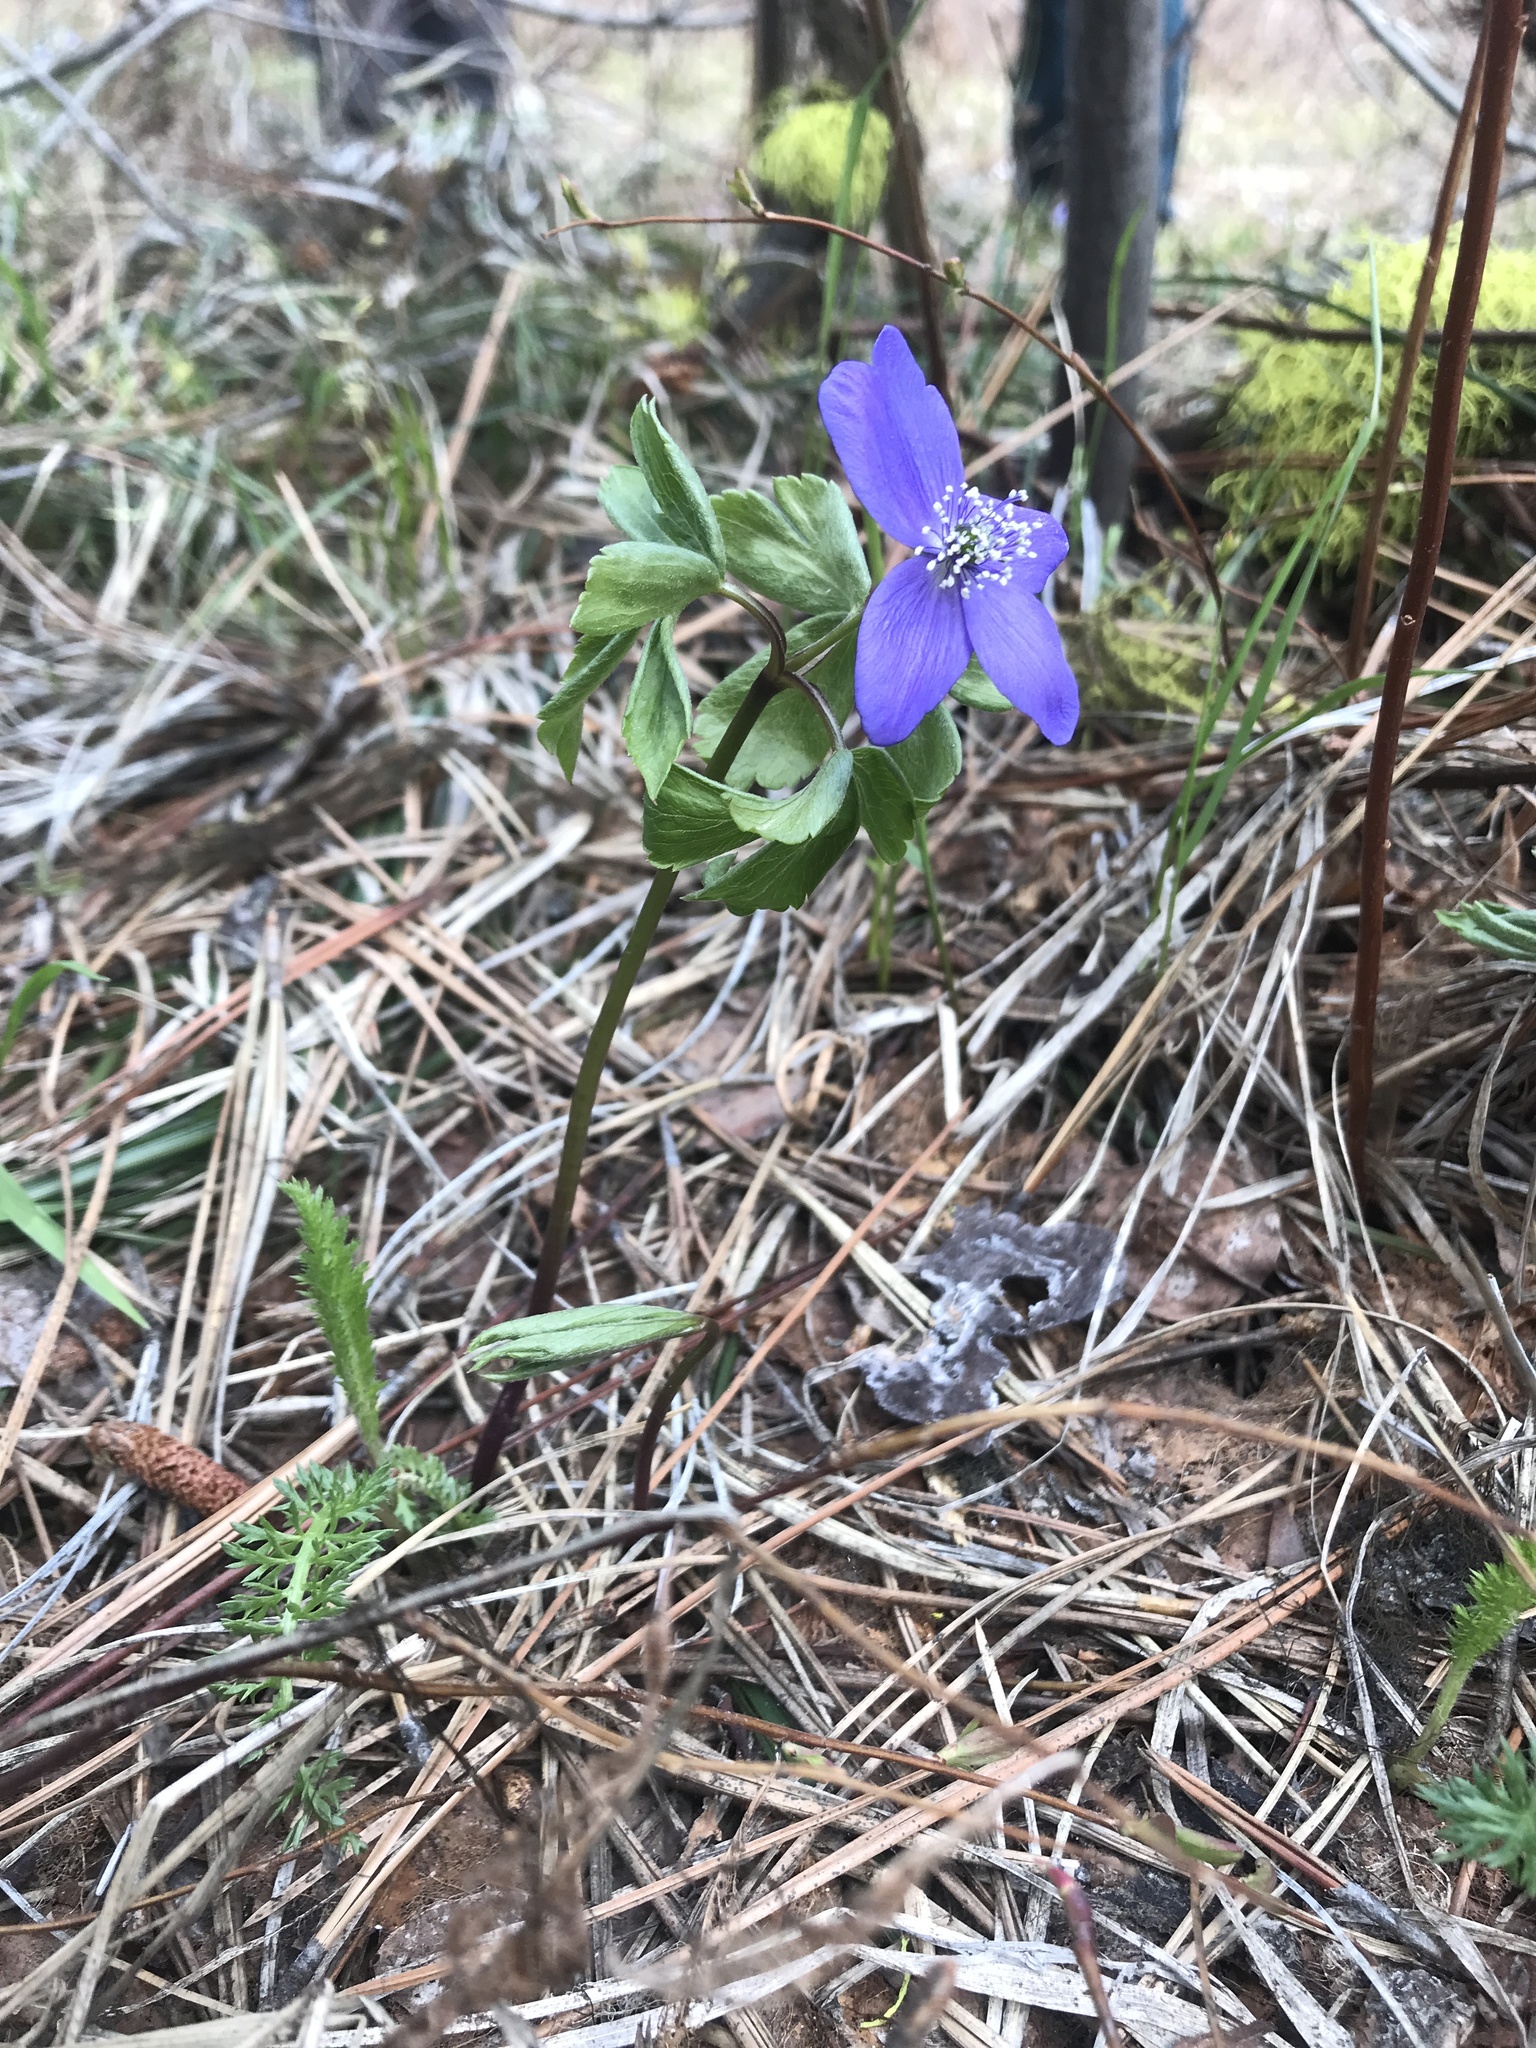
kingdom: Plantae
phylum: Tracheophyta
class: Magnoliopsida
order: Ranunculales
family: Ranunculaceae
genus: Anemone
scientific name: Anemone oregana
